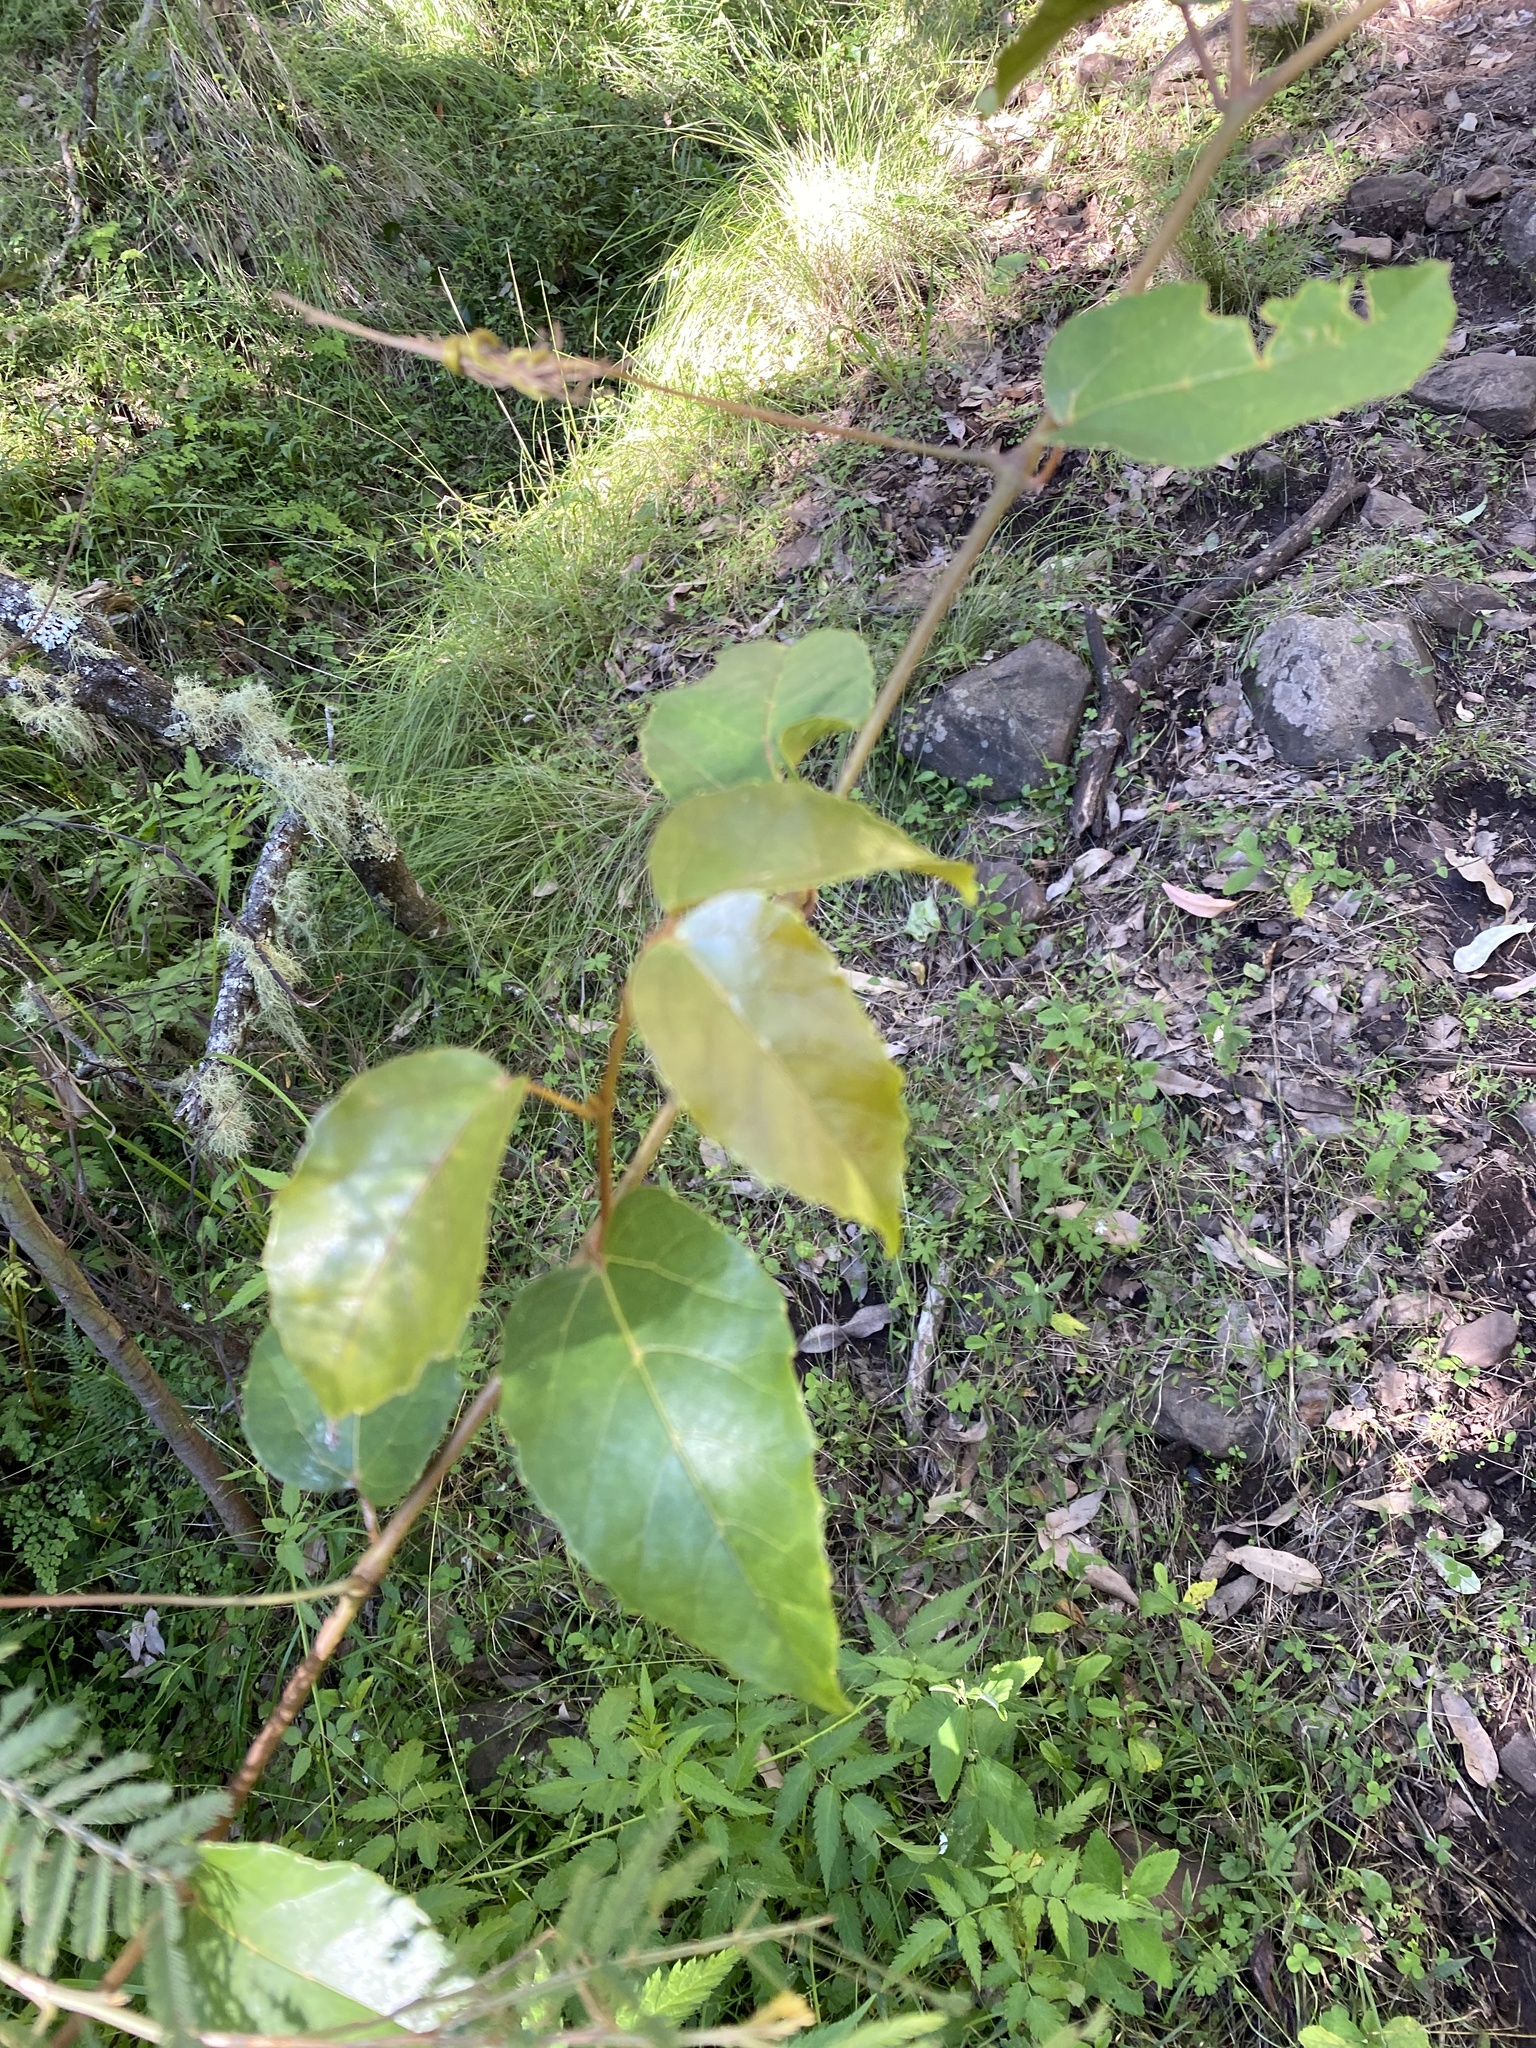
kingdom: Plantae
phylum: Tracheophyta
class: Magnoliopsida
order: Vitales
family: Vitaceae
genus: Cissus
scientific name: Cissus antarctica
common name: Kangaroo vine
